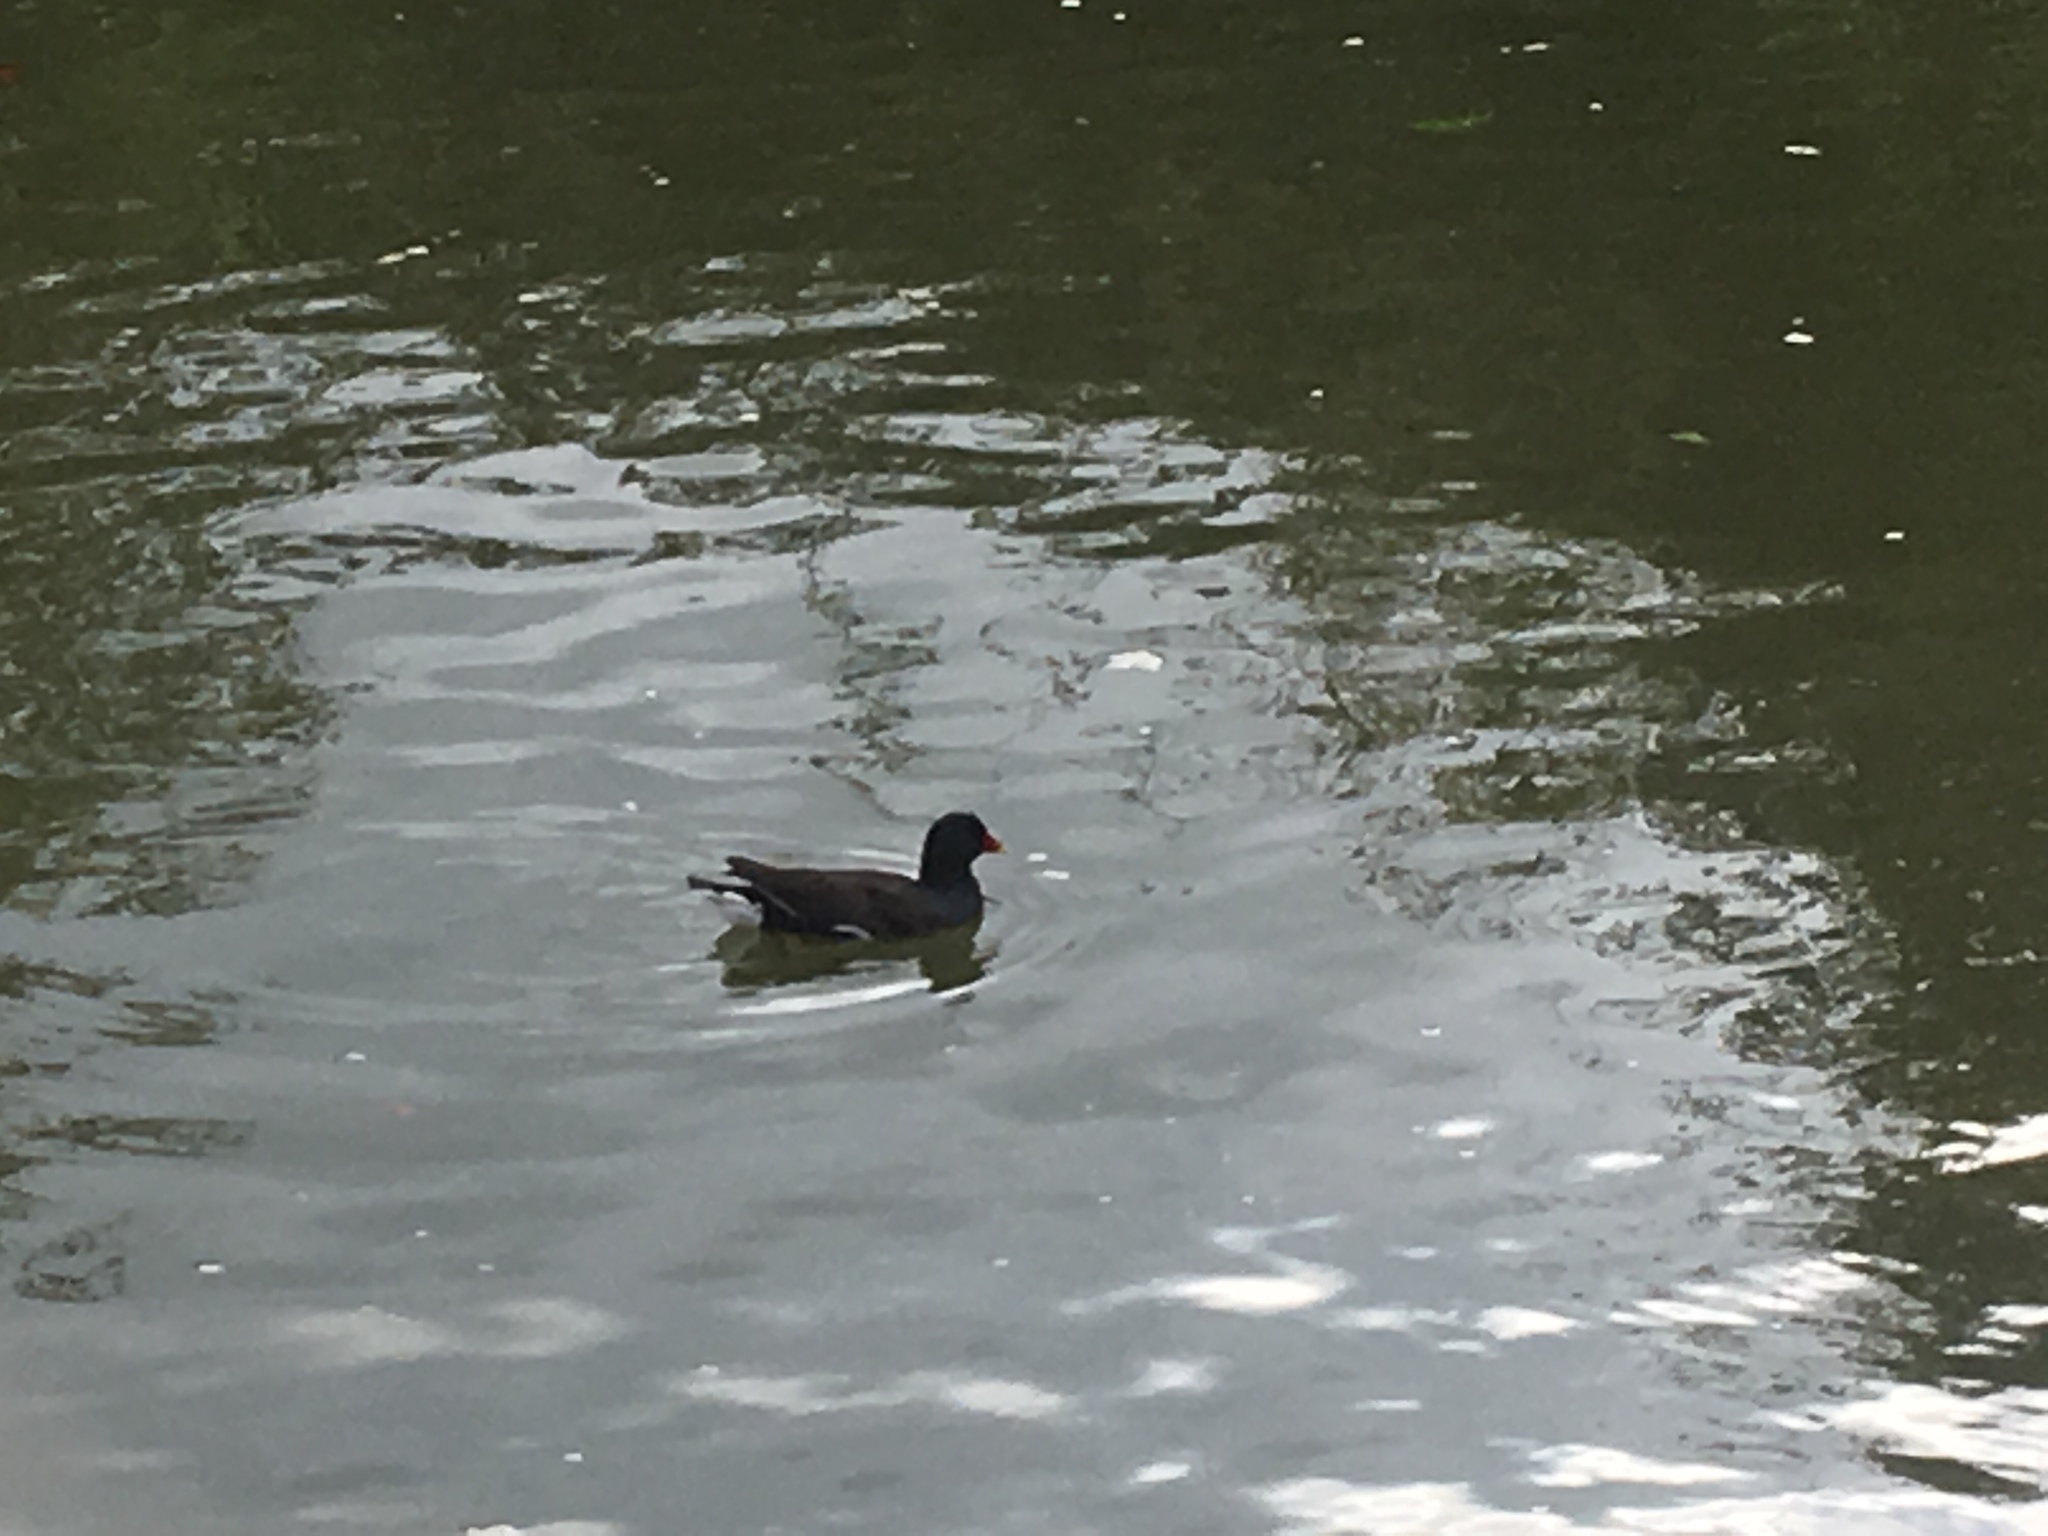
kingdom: Animalia
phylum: Chordata
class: Aves
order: Gruiformes
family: Rallidae
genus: Gallinula
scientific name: Gallinula chloropus
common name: Common moorhen
